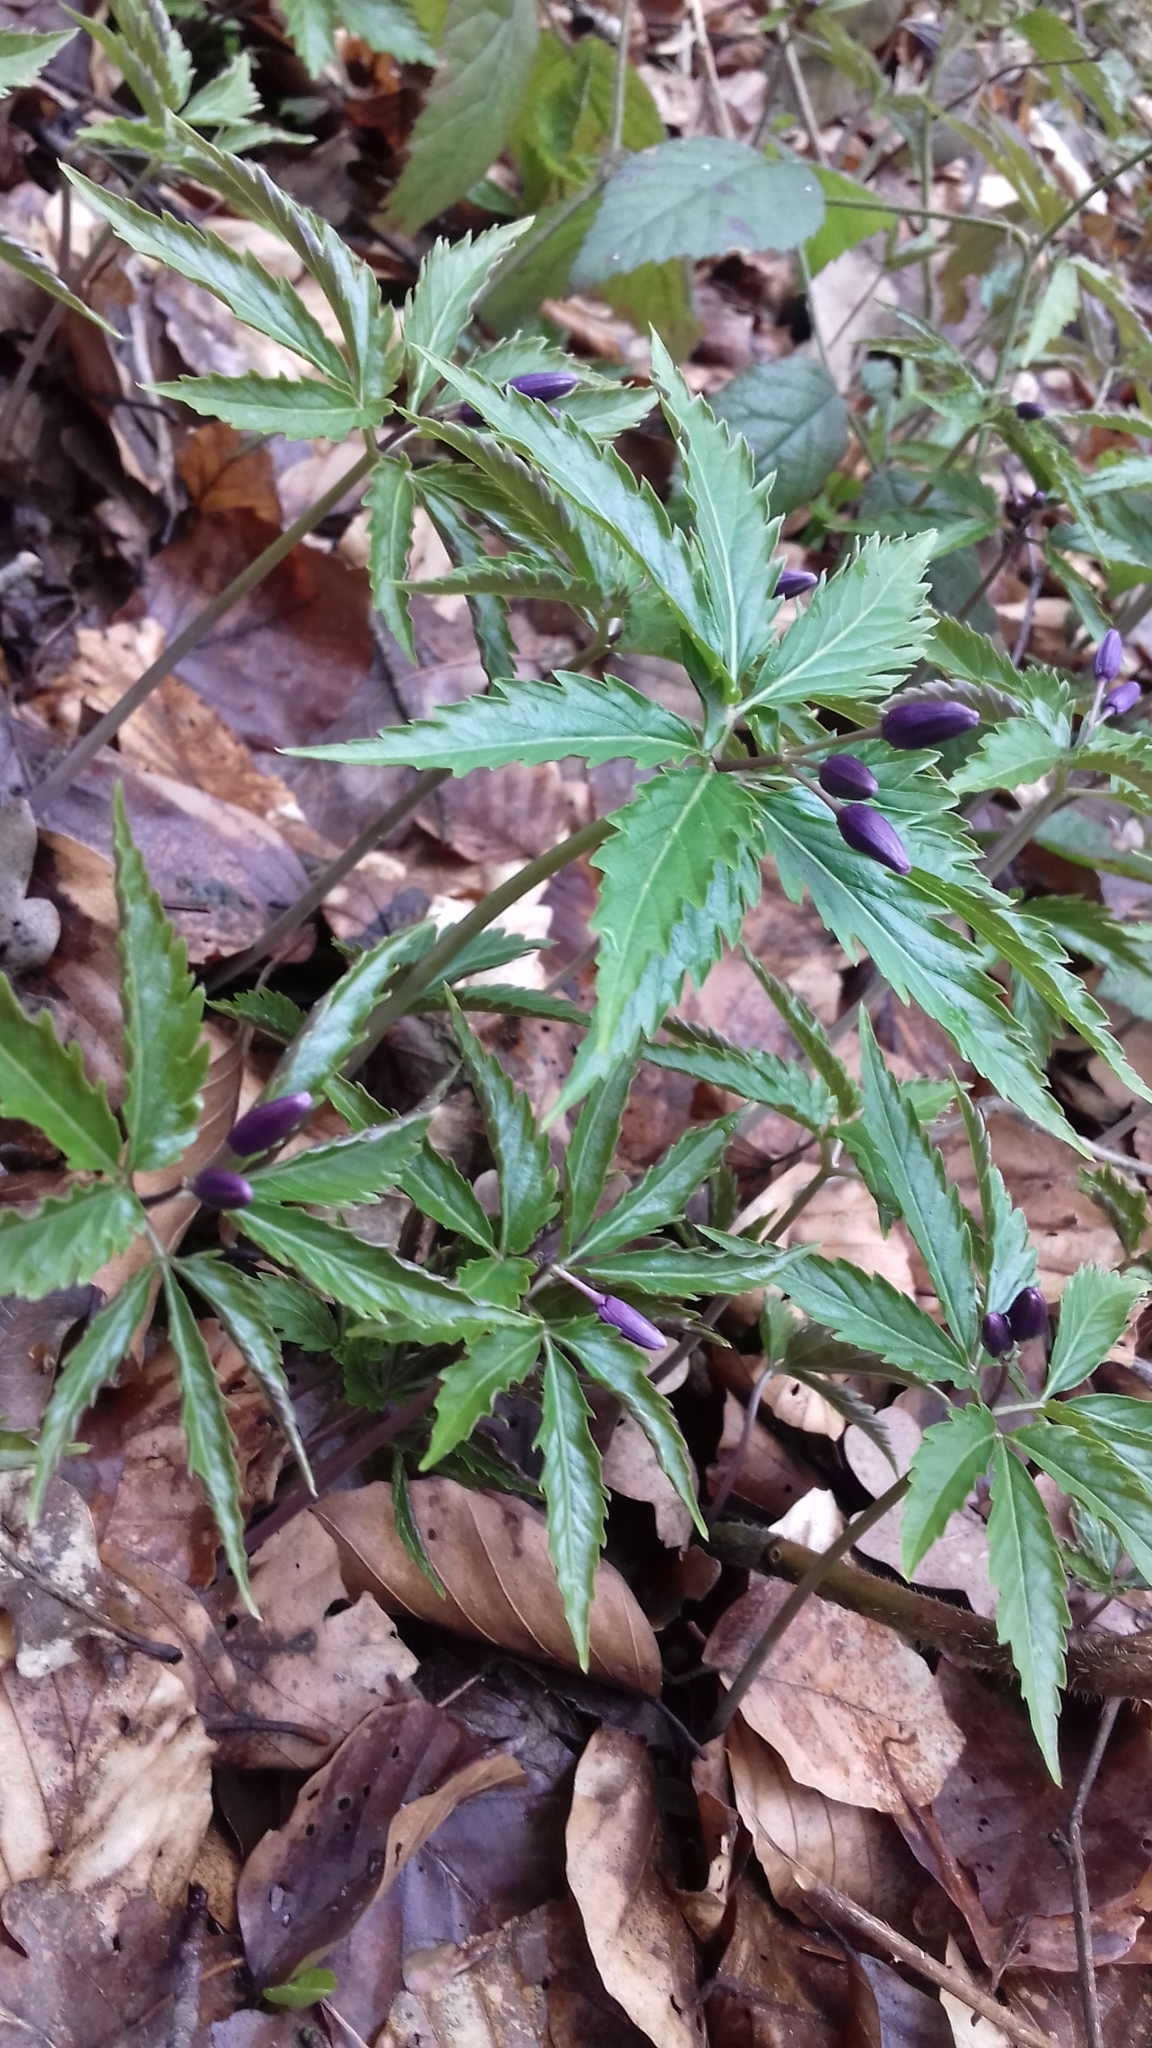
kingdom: Plantae
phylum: Tracheophyta
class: Magnoliopsida
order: Brassicales
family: Brassicaceae
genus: Cardamine
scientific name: Cardamine glanduligera
